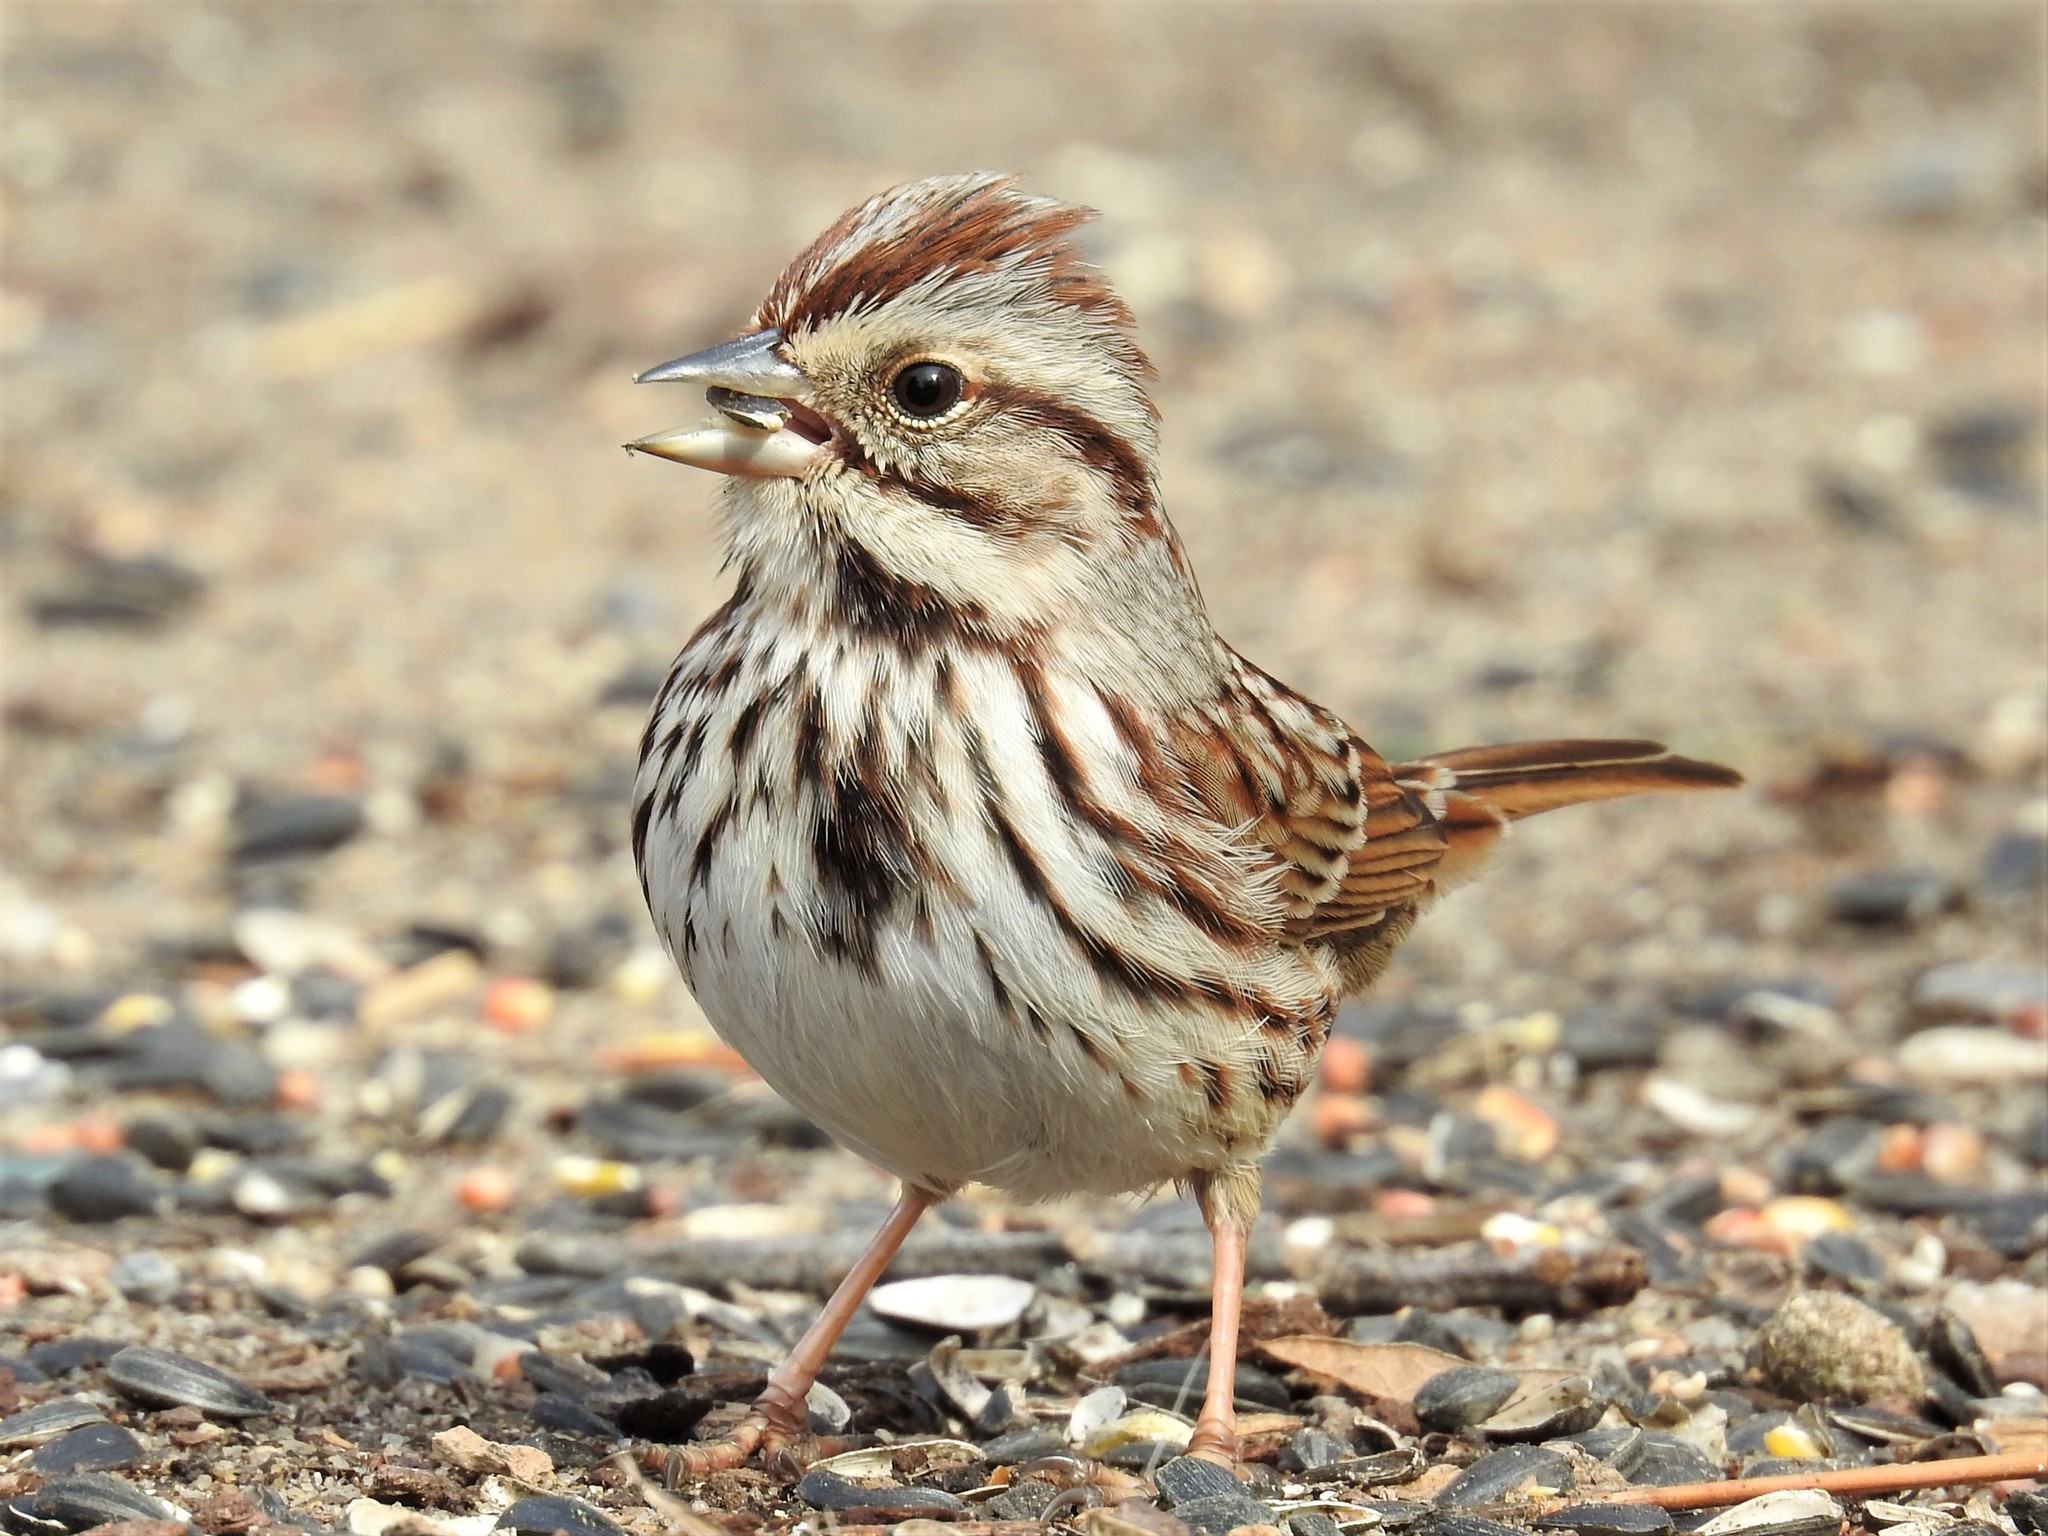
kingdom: Animalia
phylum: Chordata
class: Aves
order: Passeriformes
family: Passerellidae
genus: Melospiza
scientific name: Melospiza melodia
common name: Song sparrow
